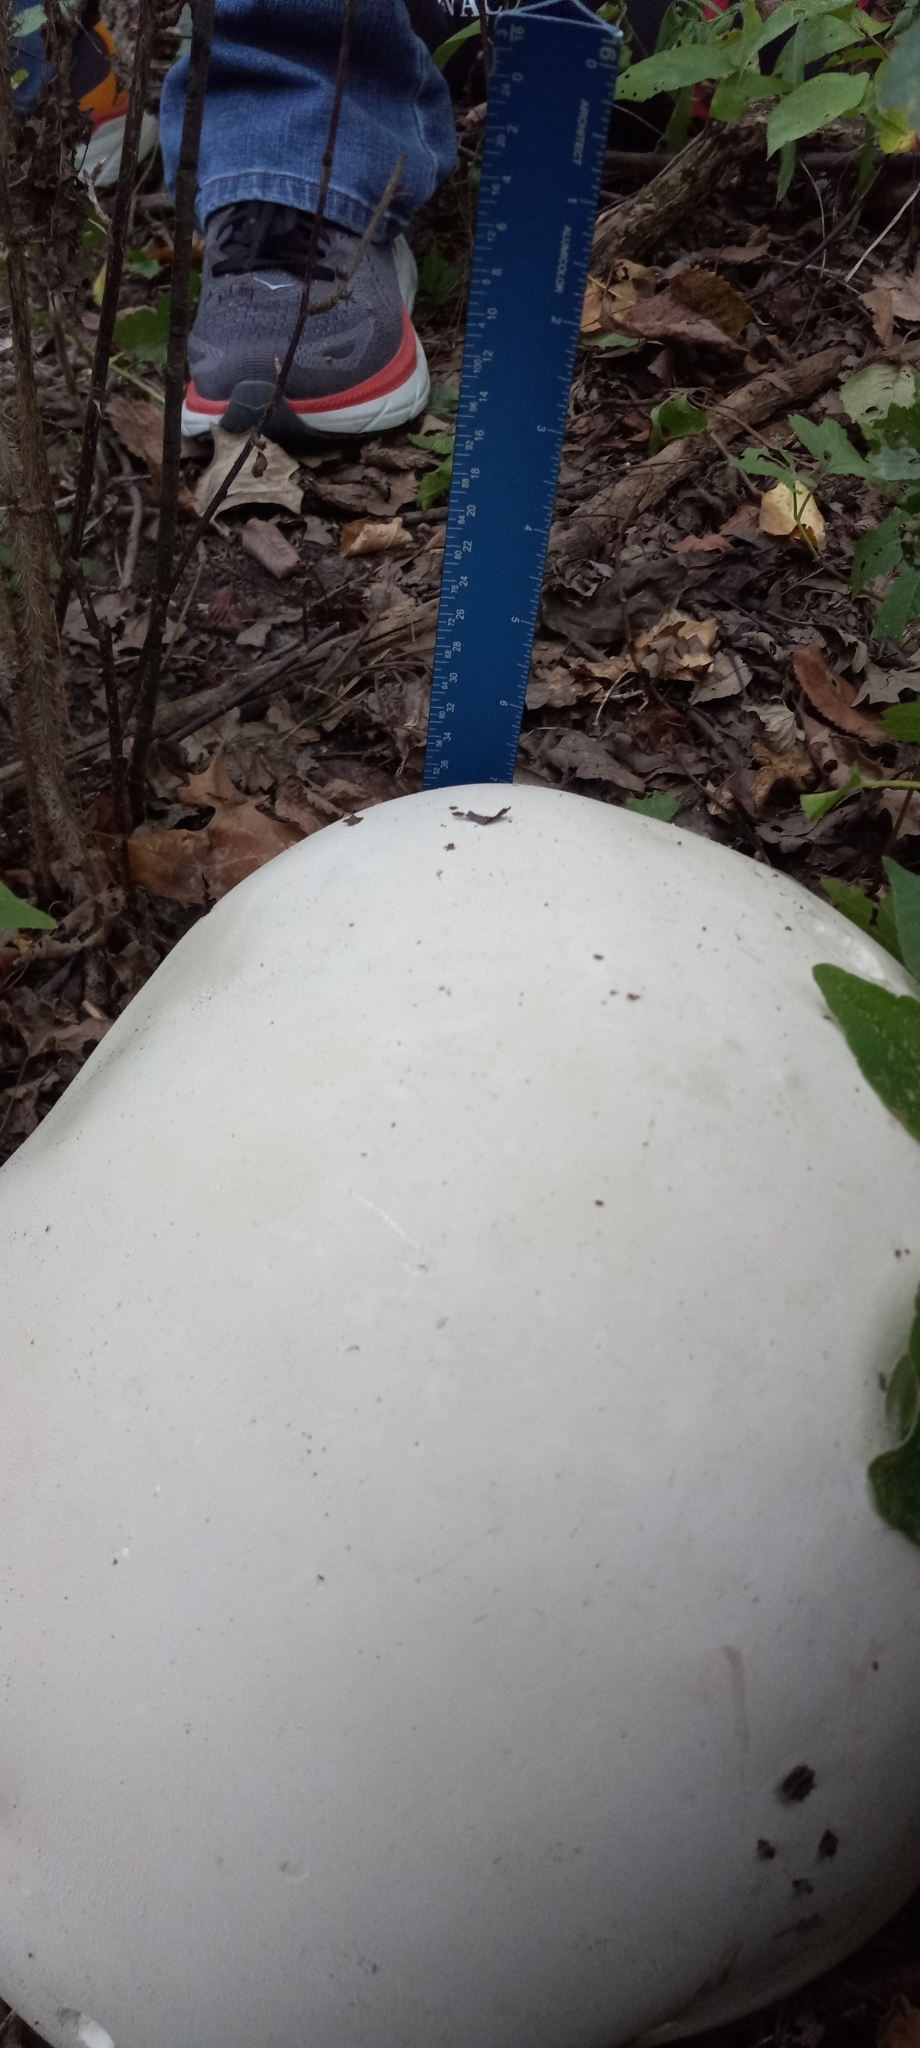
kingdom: Fungi
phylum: Basidiomycota
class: Agaricomycetes
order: Agaricales
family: Lycoperdaceae
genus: Calvatia
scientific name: Calvatia gigantea
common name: Giant puffball
